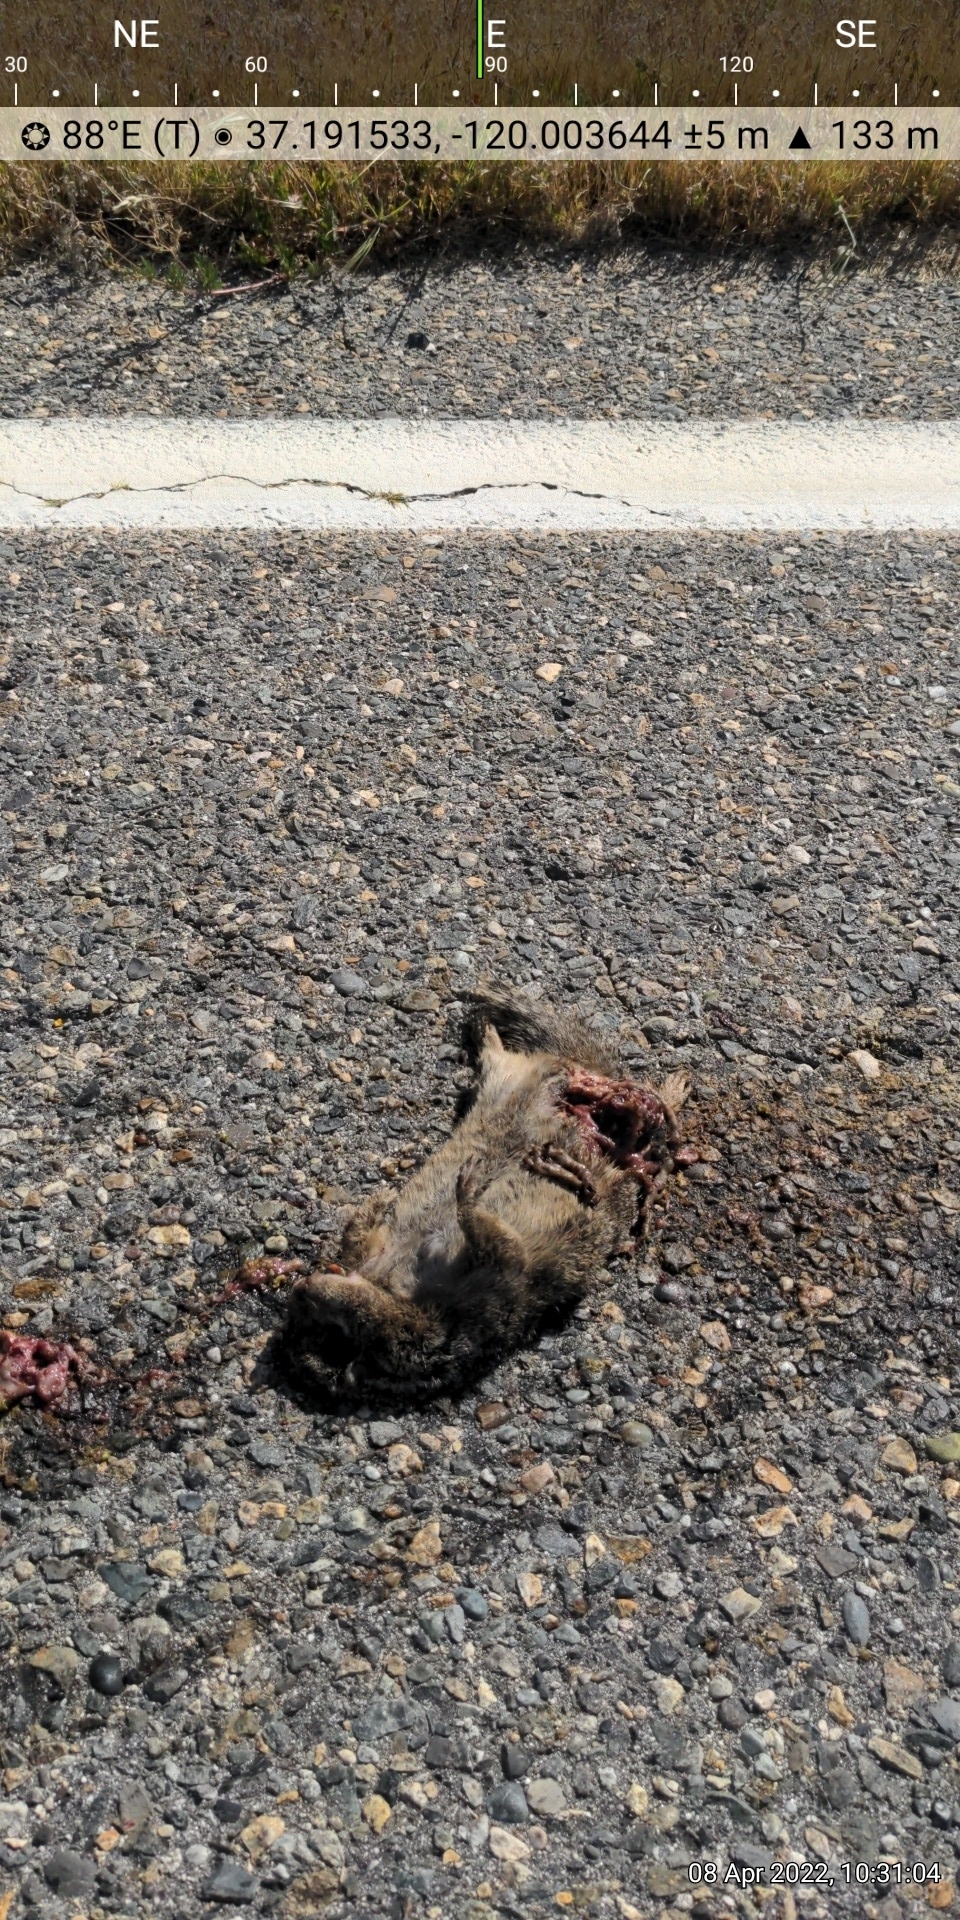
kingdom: Animalia
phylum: Chordata
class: Mammalia
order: Rodentia
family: Sciuridae
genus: Otospermophilus
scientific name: Otospermophilus beecheyi
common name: California ground squirrel
